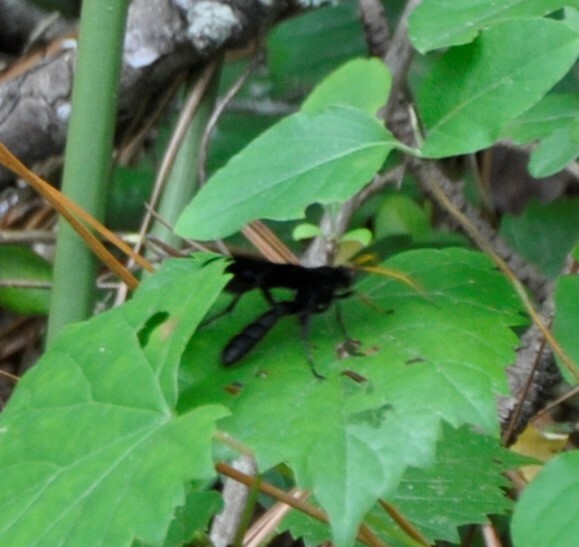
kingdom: Animalia
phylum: Arthropoda
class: Insecta
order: Hymenoptera
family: Ichneumonidae
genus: Gnamptopelta
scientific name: Gnamptopelta obsidianator
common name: Bent-shielded besieger wasp
